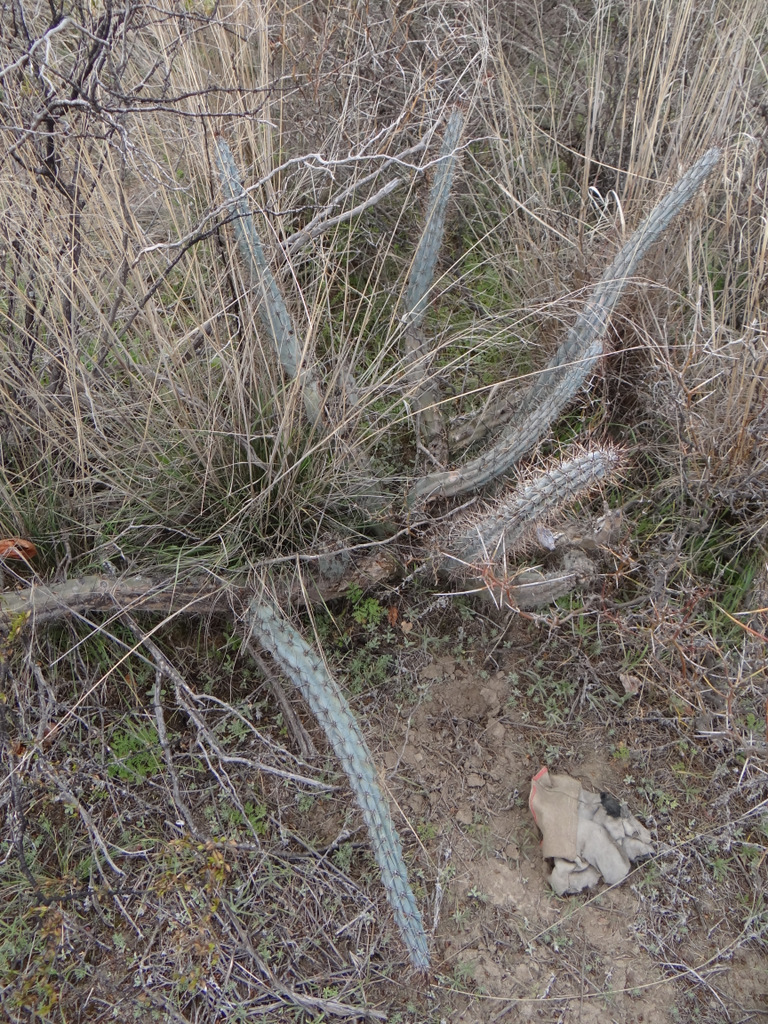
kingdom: Plantae
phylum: Tracheophyta
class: Magnoliopsida
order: Caryophyllales
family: Cactaceae
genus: Cereus
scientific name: Cereus aethiops
